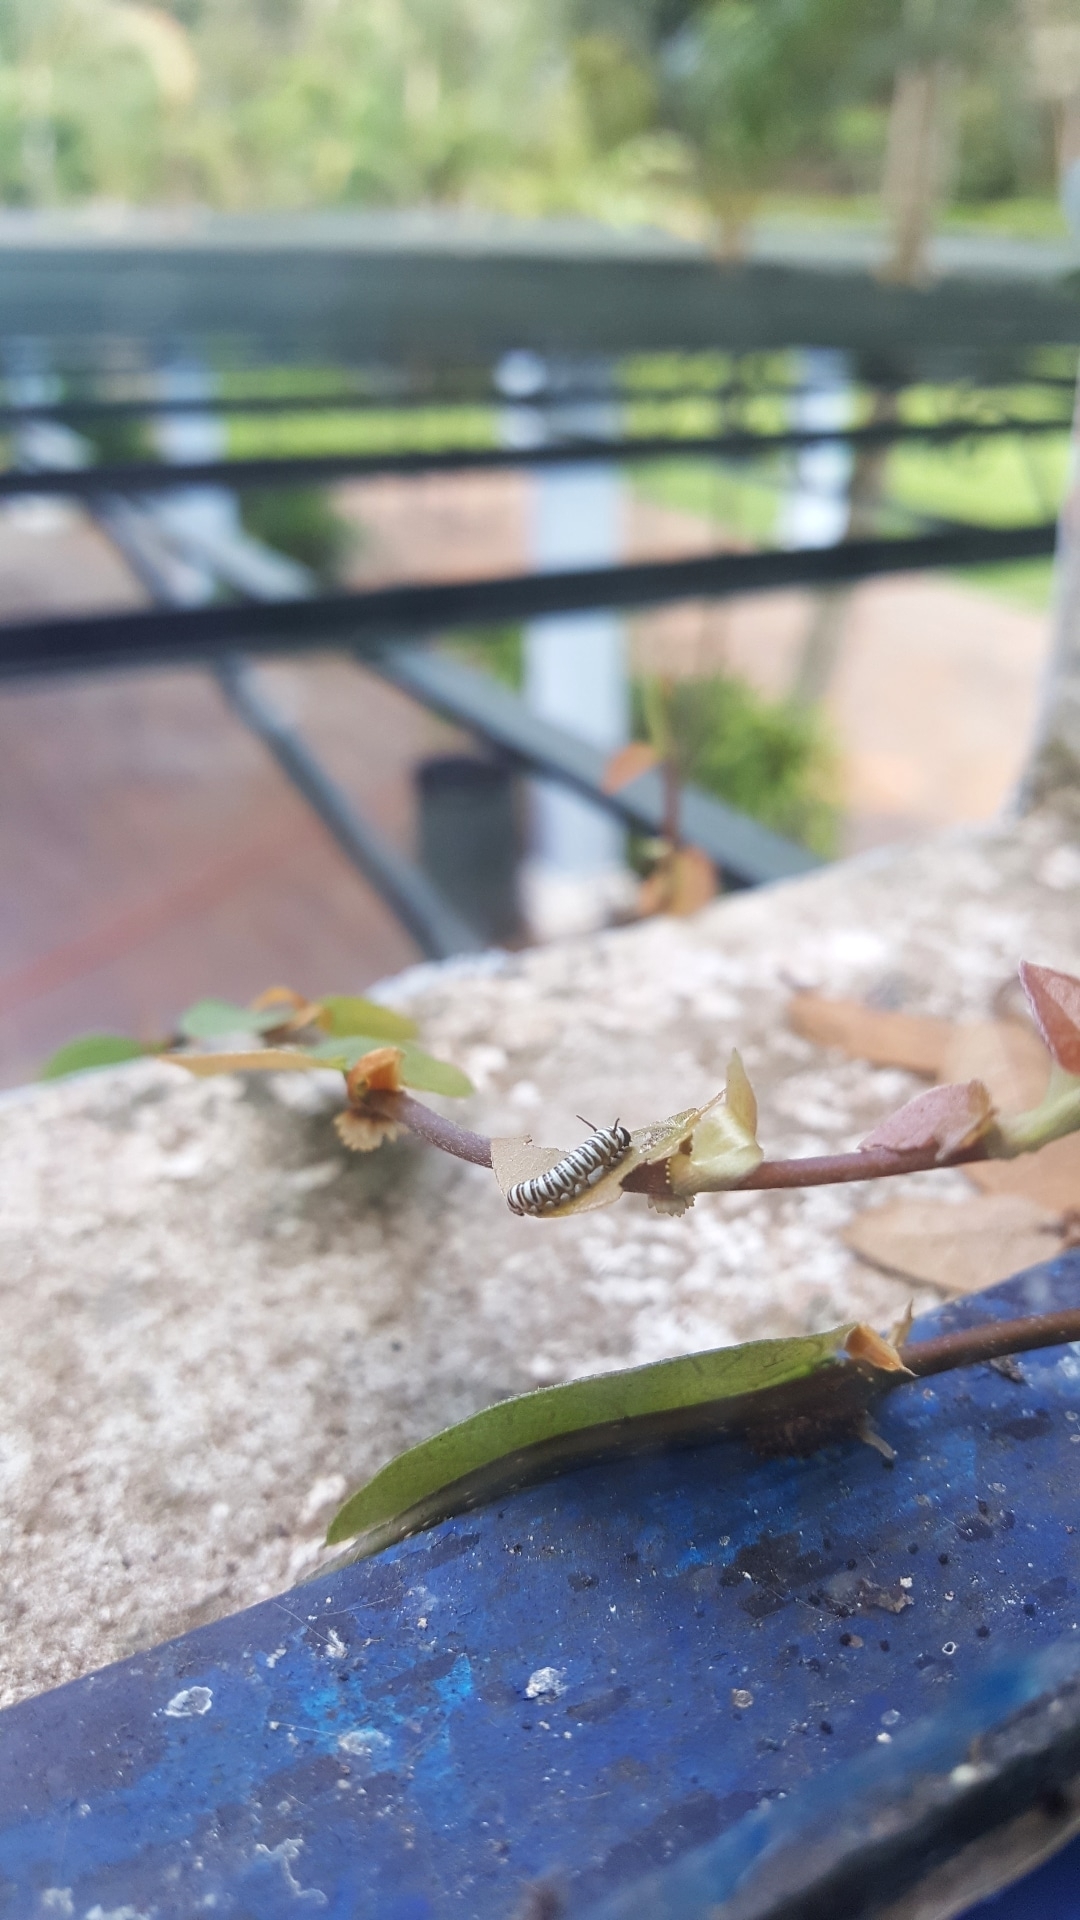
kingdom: Animalia
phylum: Arthropoda
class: Insecta
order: Lepidoptera
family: Nymphalidae
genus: Danaus
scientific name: Danaus plexippus
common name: Monarch
